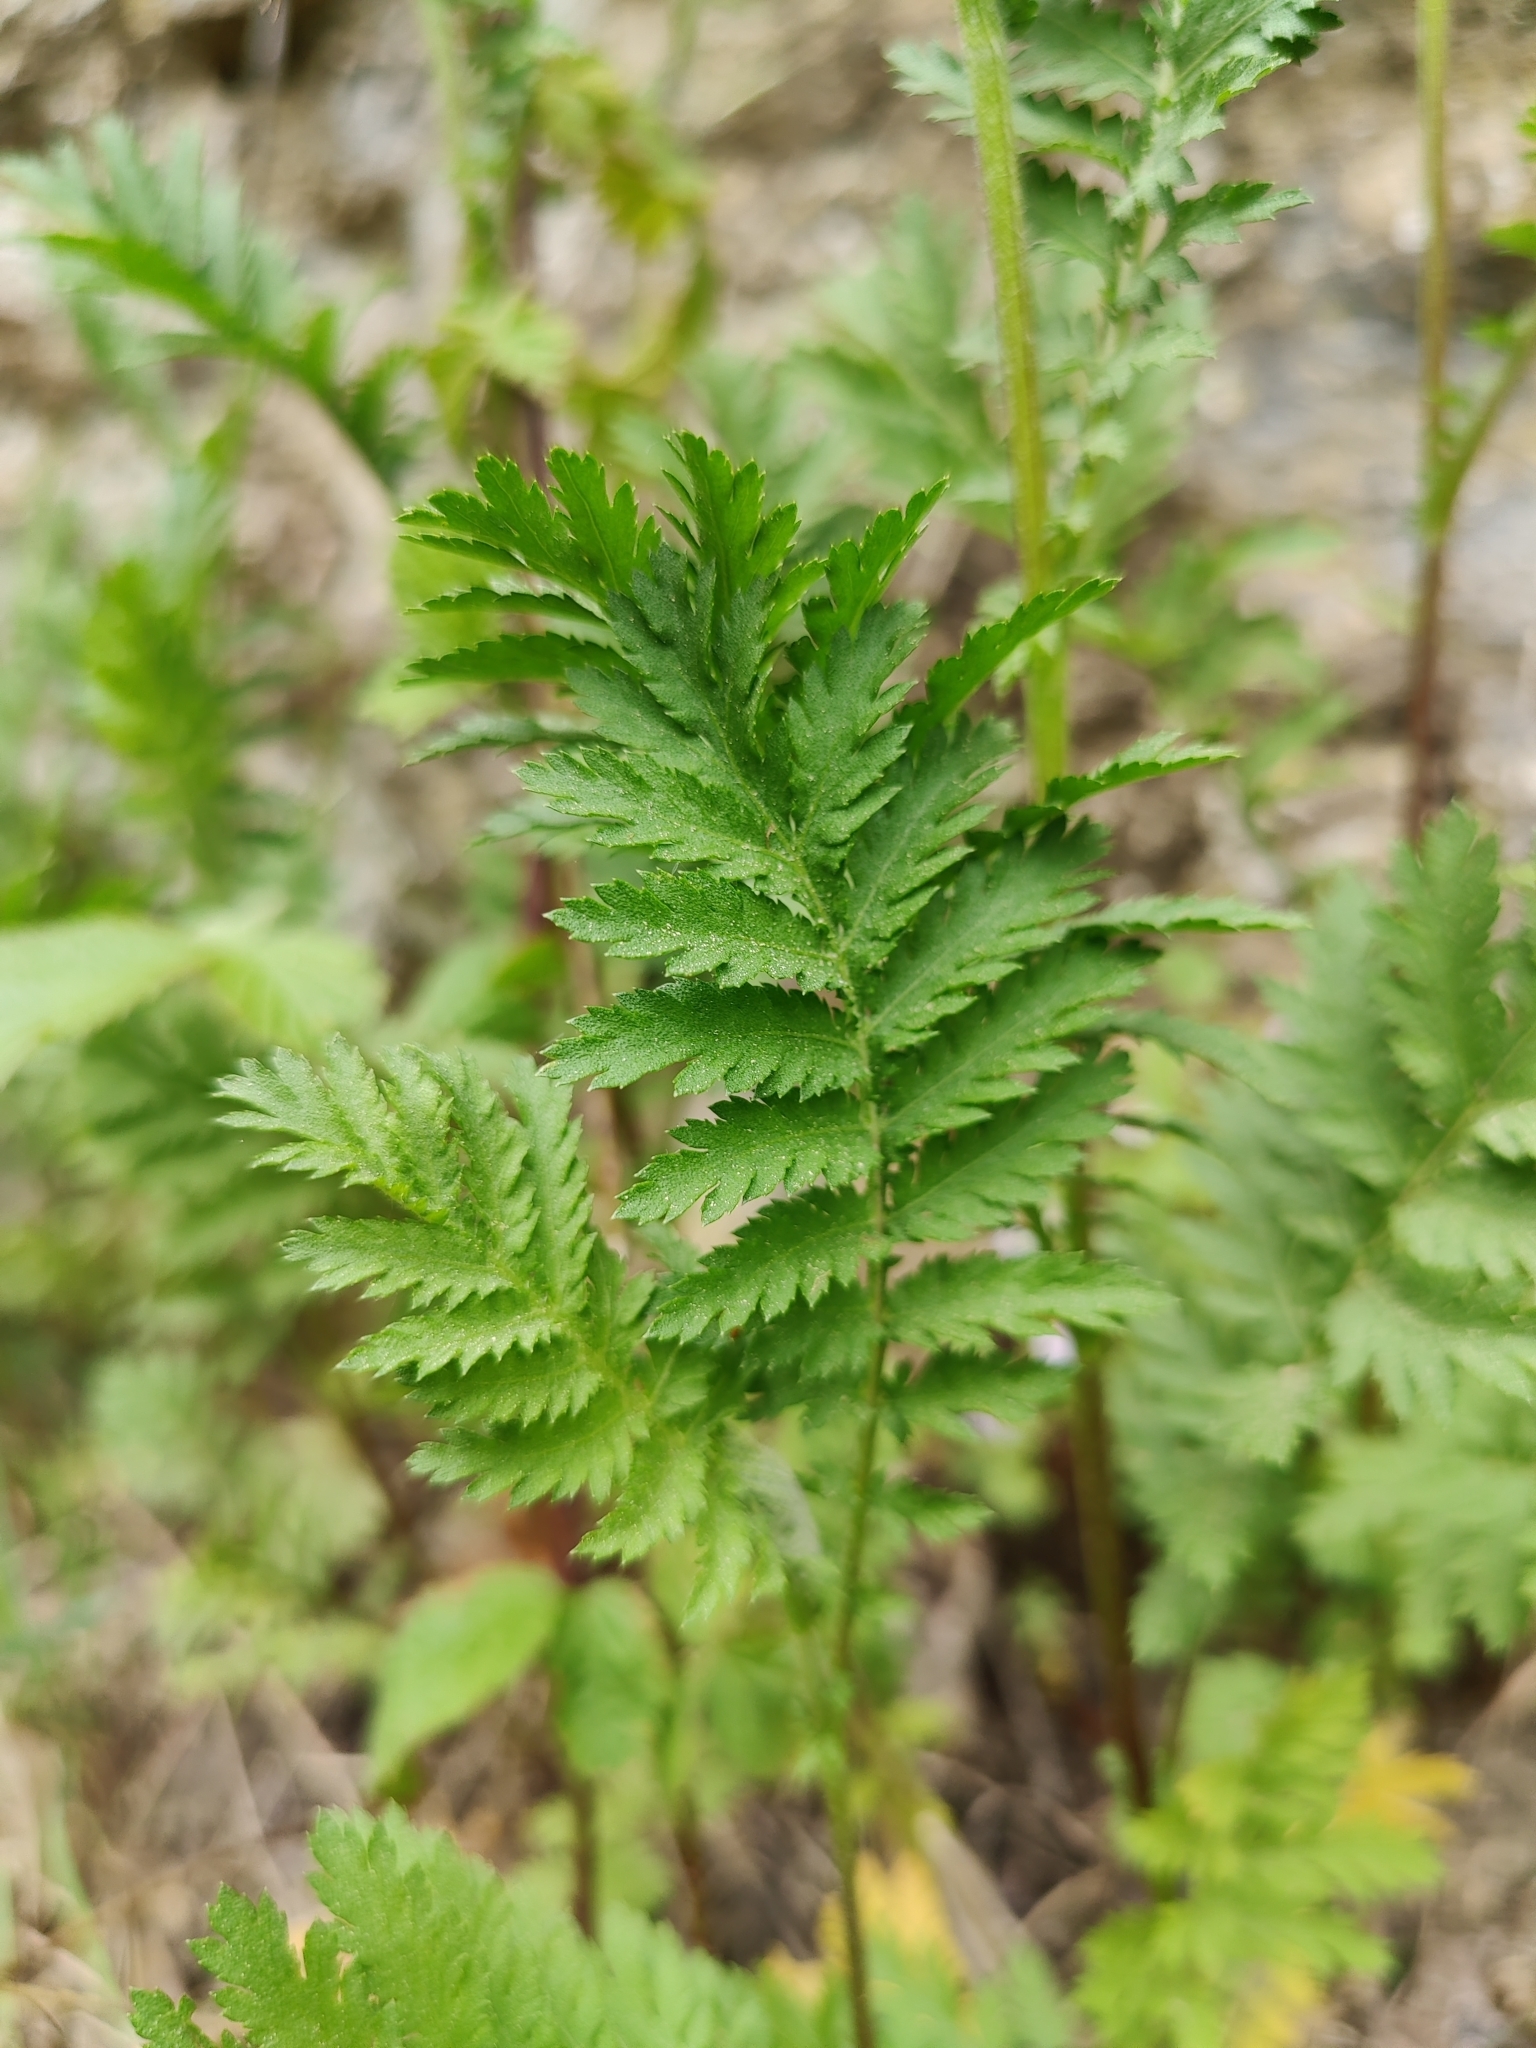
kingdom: Plantae
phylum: Tracheophyta
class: Magnoliopsida
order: Asterales
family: Asteraceae
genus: Tanacetum
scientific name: Tanacetum vulgare
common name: Common tansy
